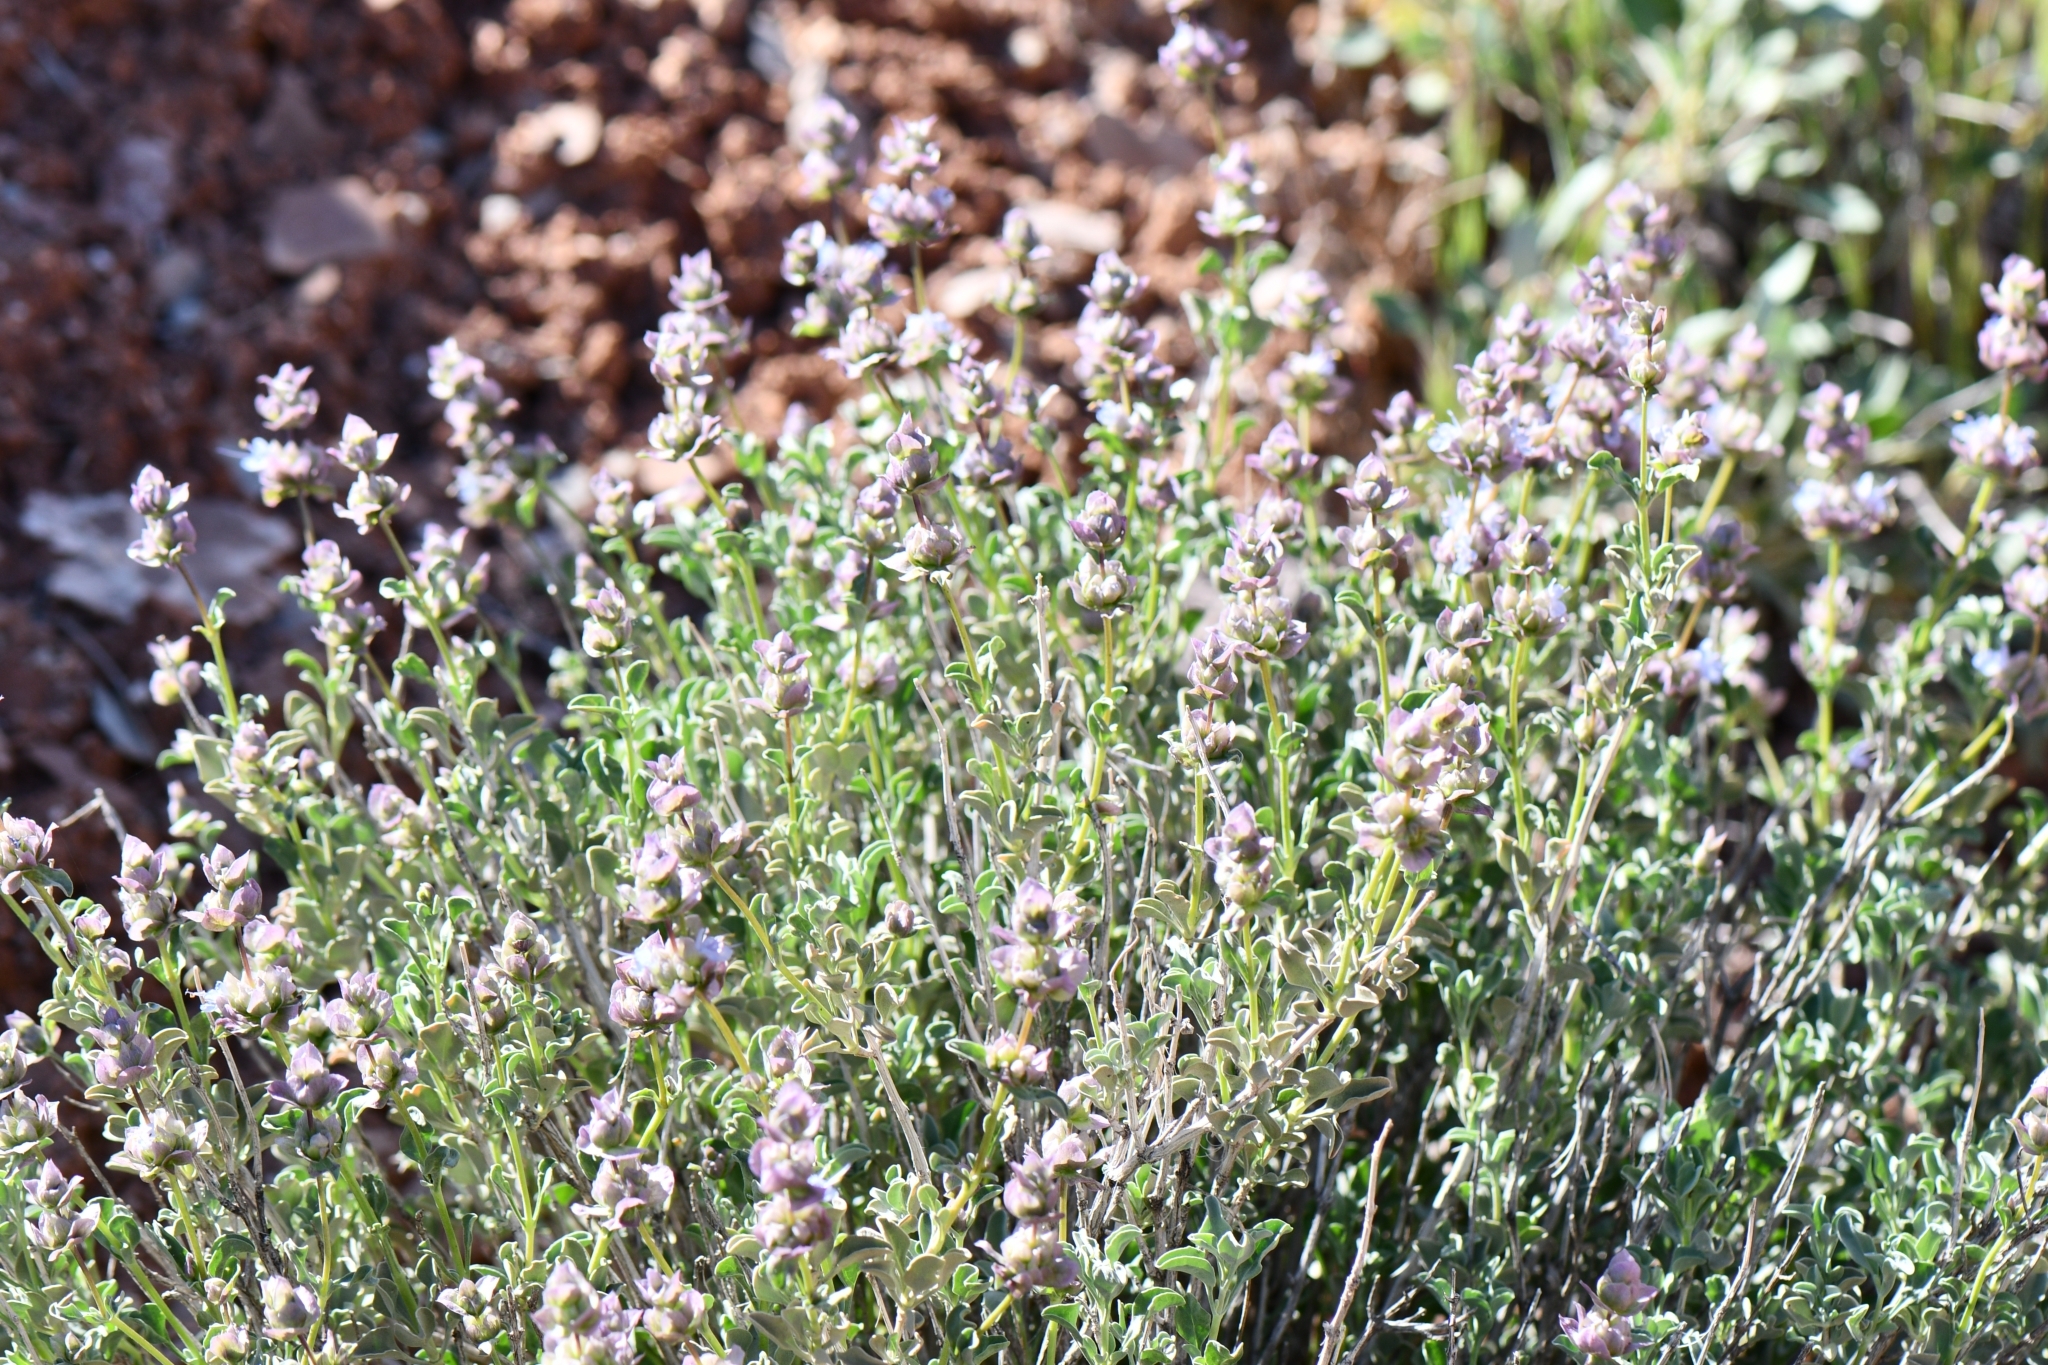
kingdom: Plantae
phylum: Tracheophyta
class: Magnoliopsida
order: Lamiales
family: Lamiaceae
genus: Salvia
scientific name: Salvia dorrii
